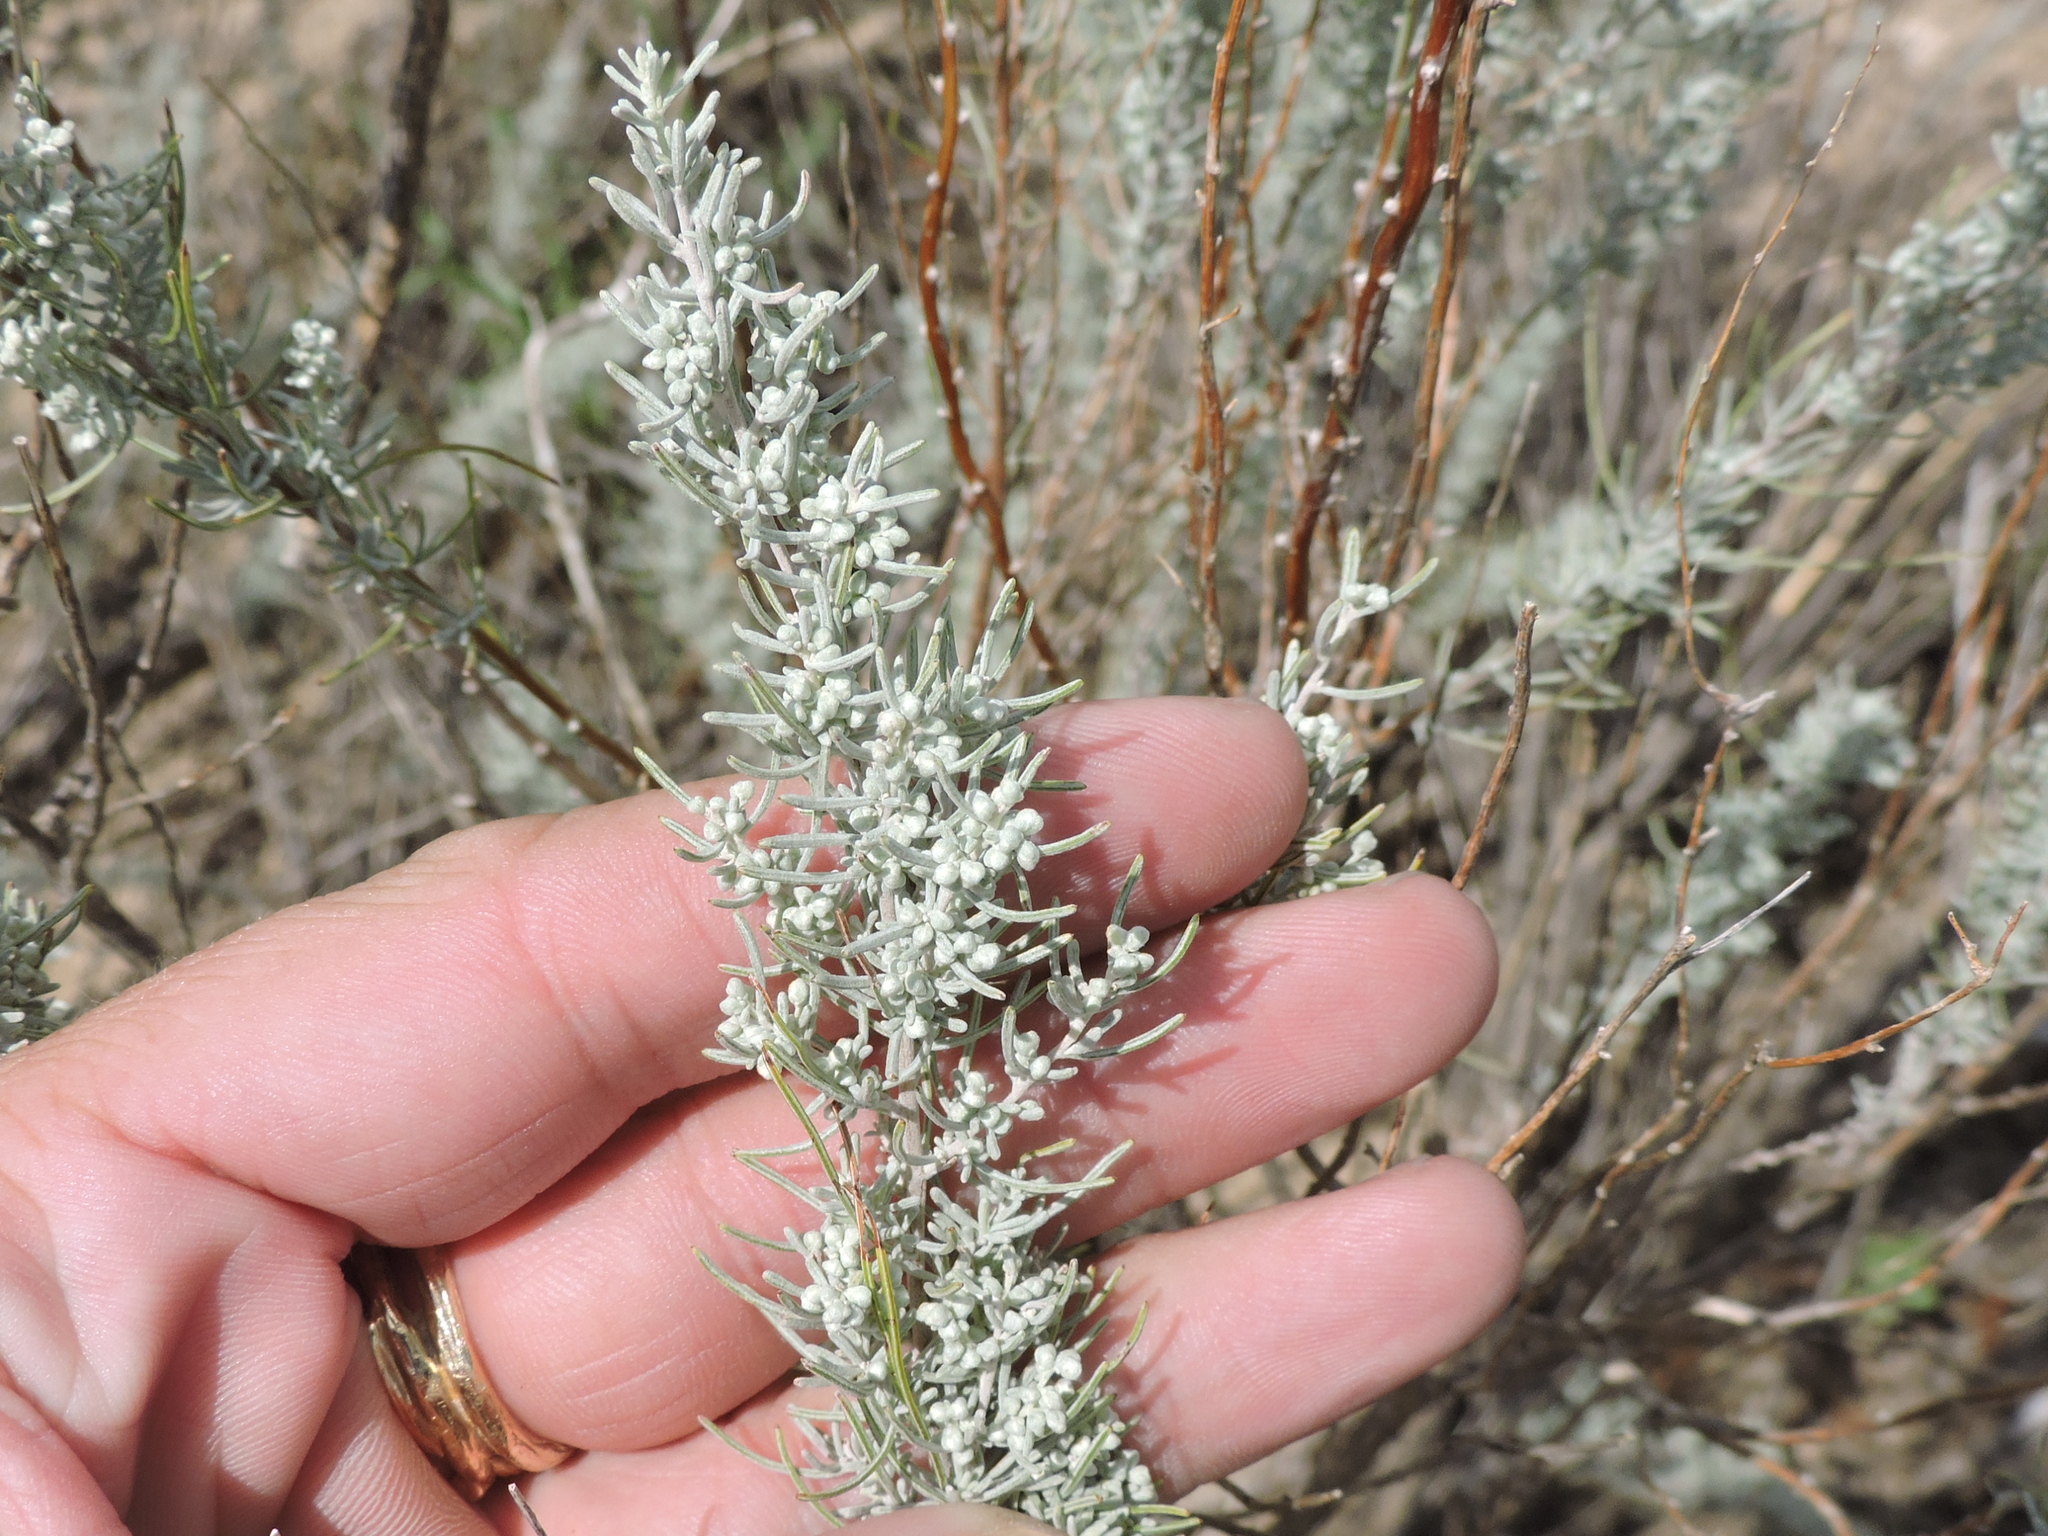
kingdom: Plantae
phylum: Tracheophyta
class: Magnoliopsida
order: Asterales
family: Asteraceae
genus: Artemisia
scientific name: Artemisia filifolia
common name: Sand-sage
